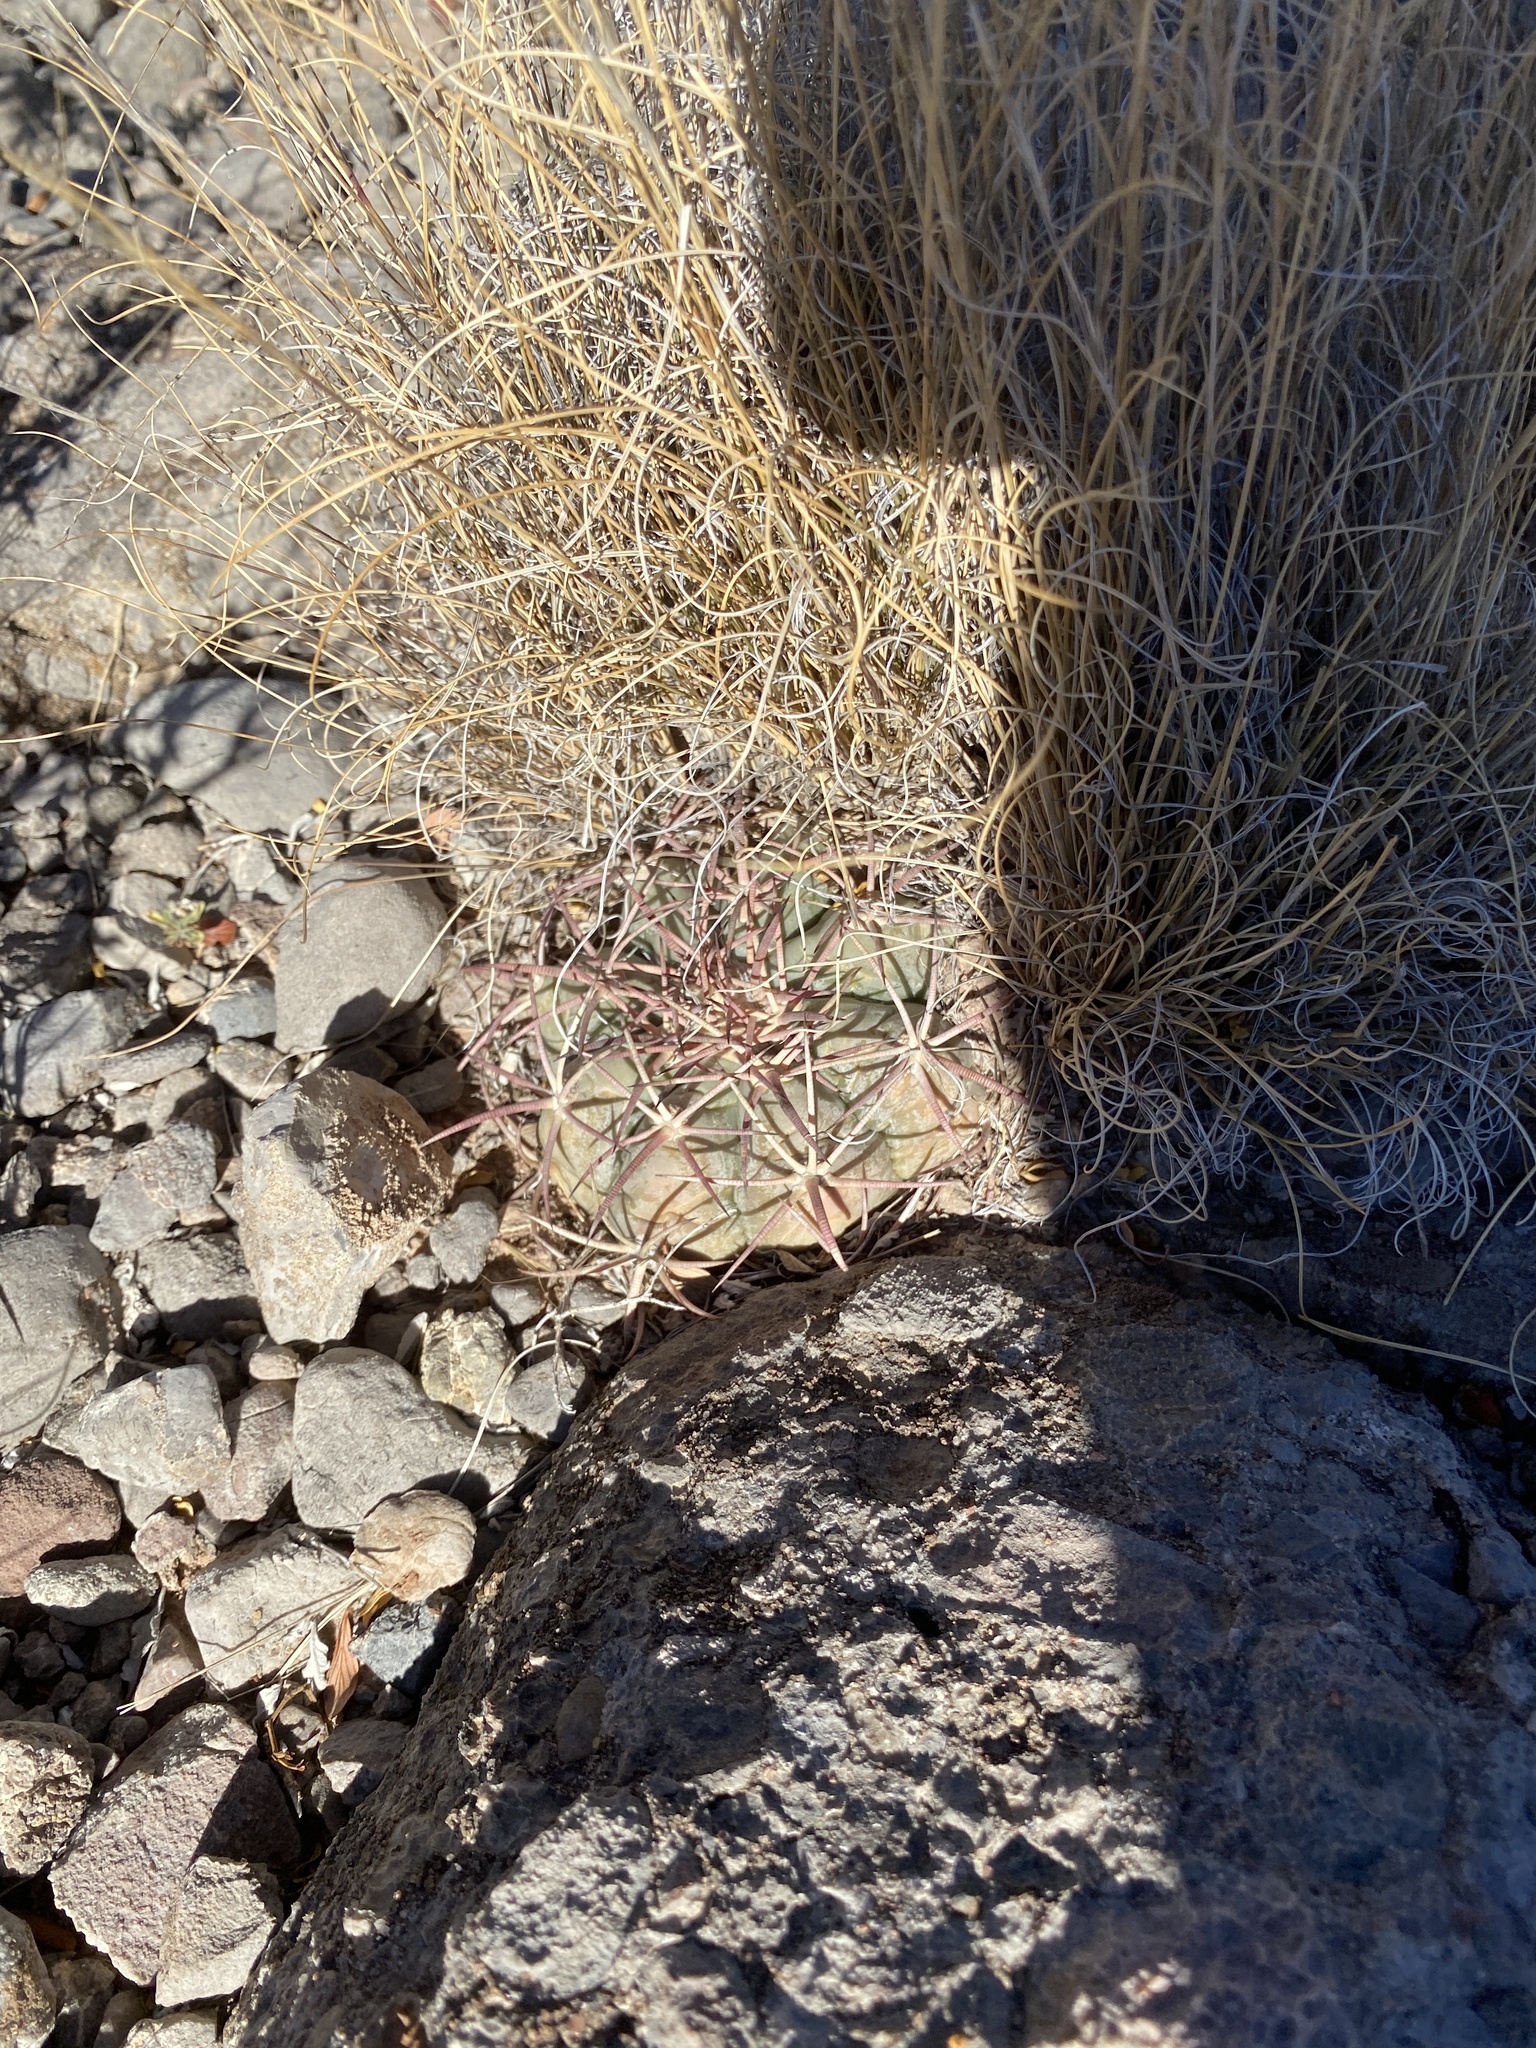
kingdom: Plantae
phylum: Tracheophyta
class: Magnoliopsida
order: Caryophyllales
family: Cactaceae
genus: Echinocactus
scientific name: Echinocactus horizonthalonius
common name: Devilshead
